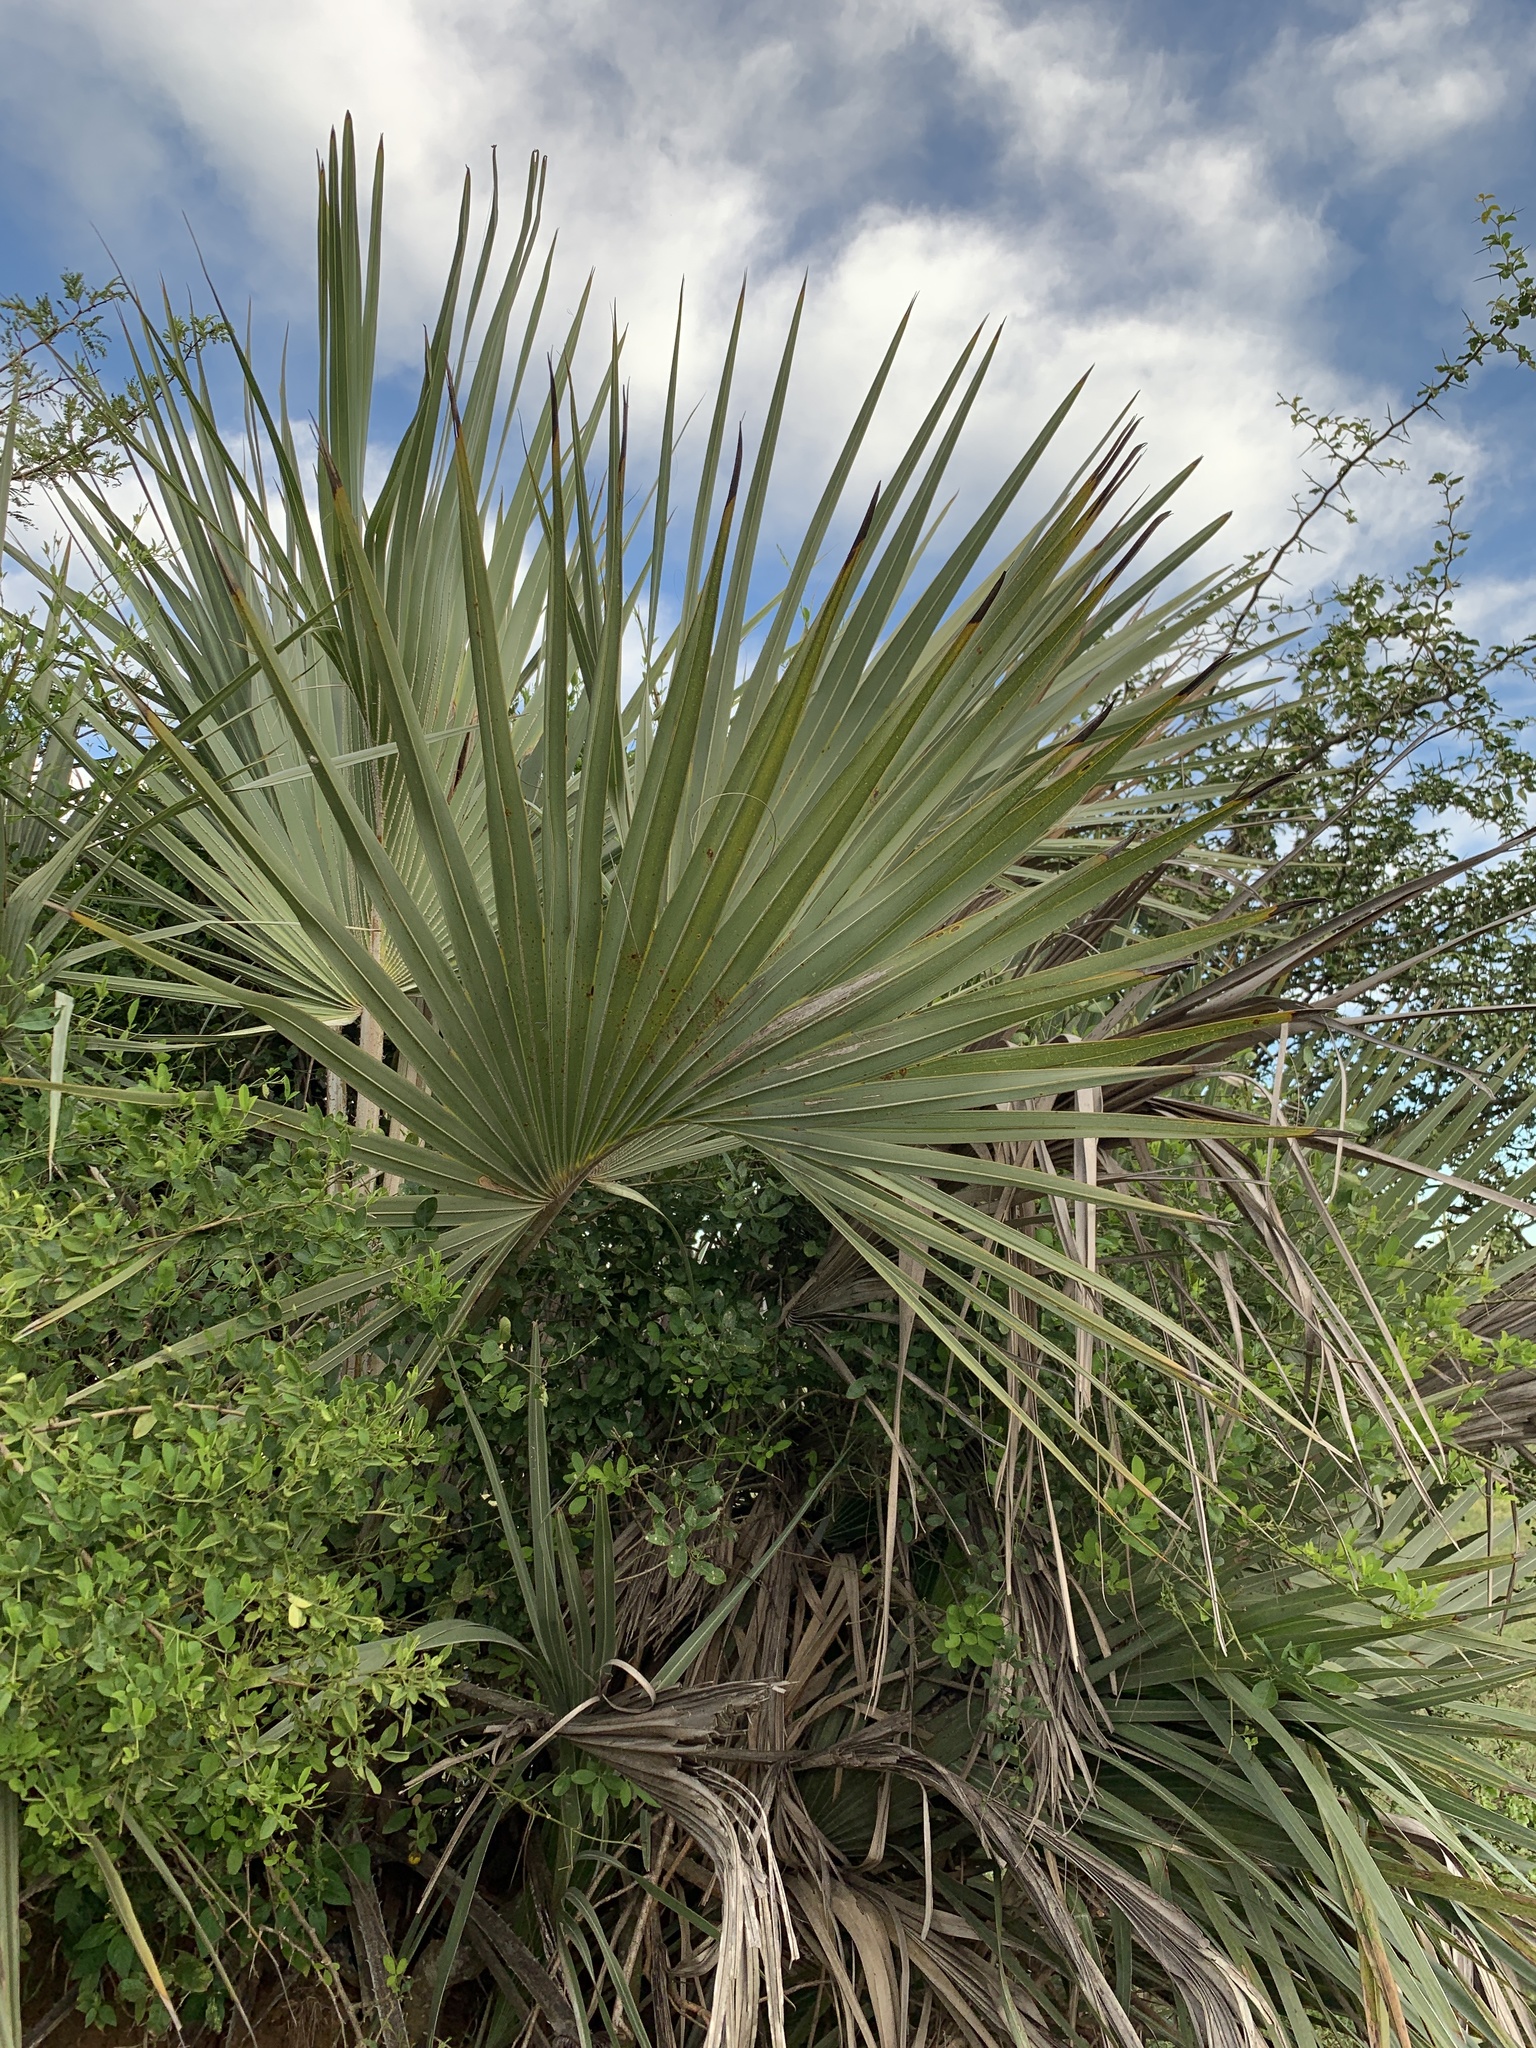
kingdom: Plantae
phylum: Tracheophyta
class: Liliopsida
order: Arecales
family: Arecaceae
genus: Hyphaene
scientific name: Hyphaene coriacea
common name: Ilala palm
